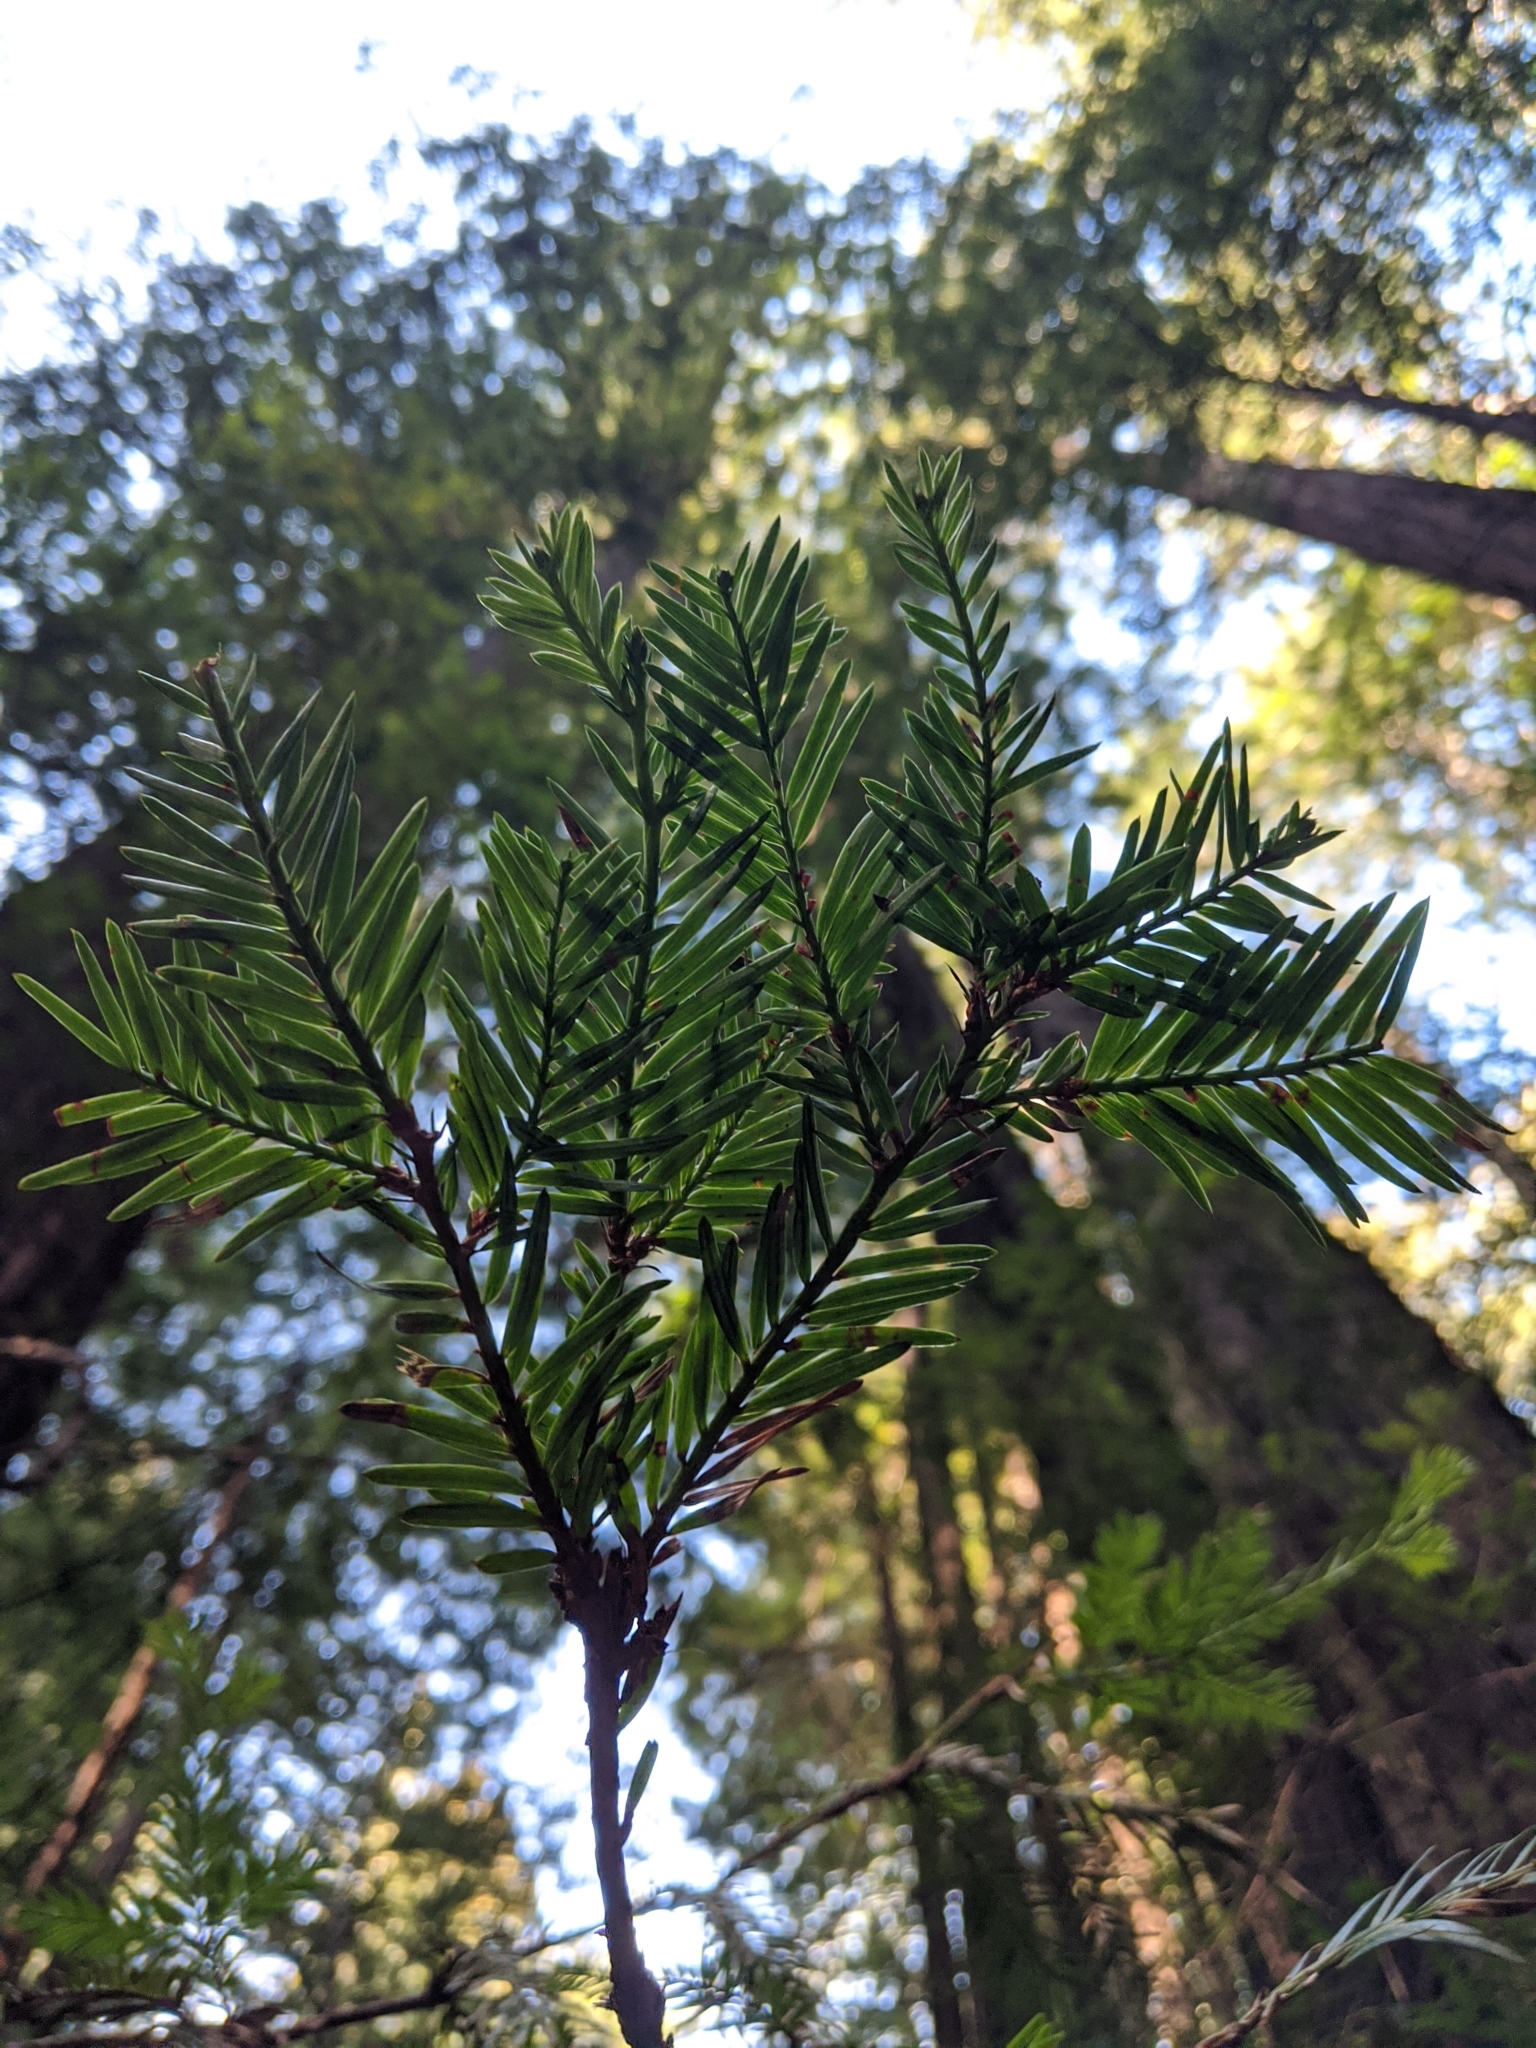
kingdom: Plantae
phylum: Tracheophyta
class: Pinopsida
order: Pinales
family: Cupressaceae
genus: Sequoia
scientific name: Sequoia sempervirens
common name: Coast redwood
